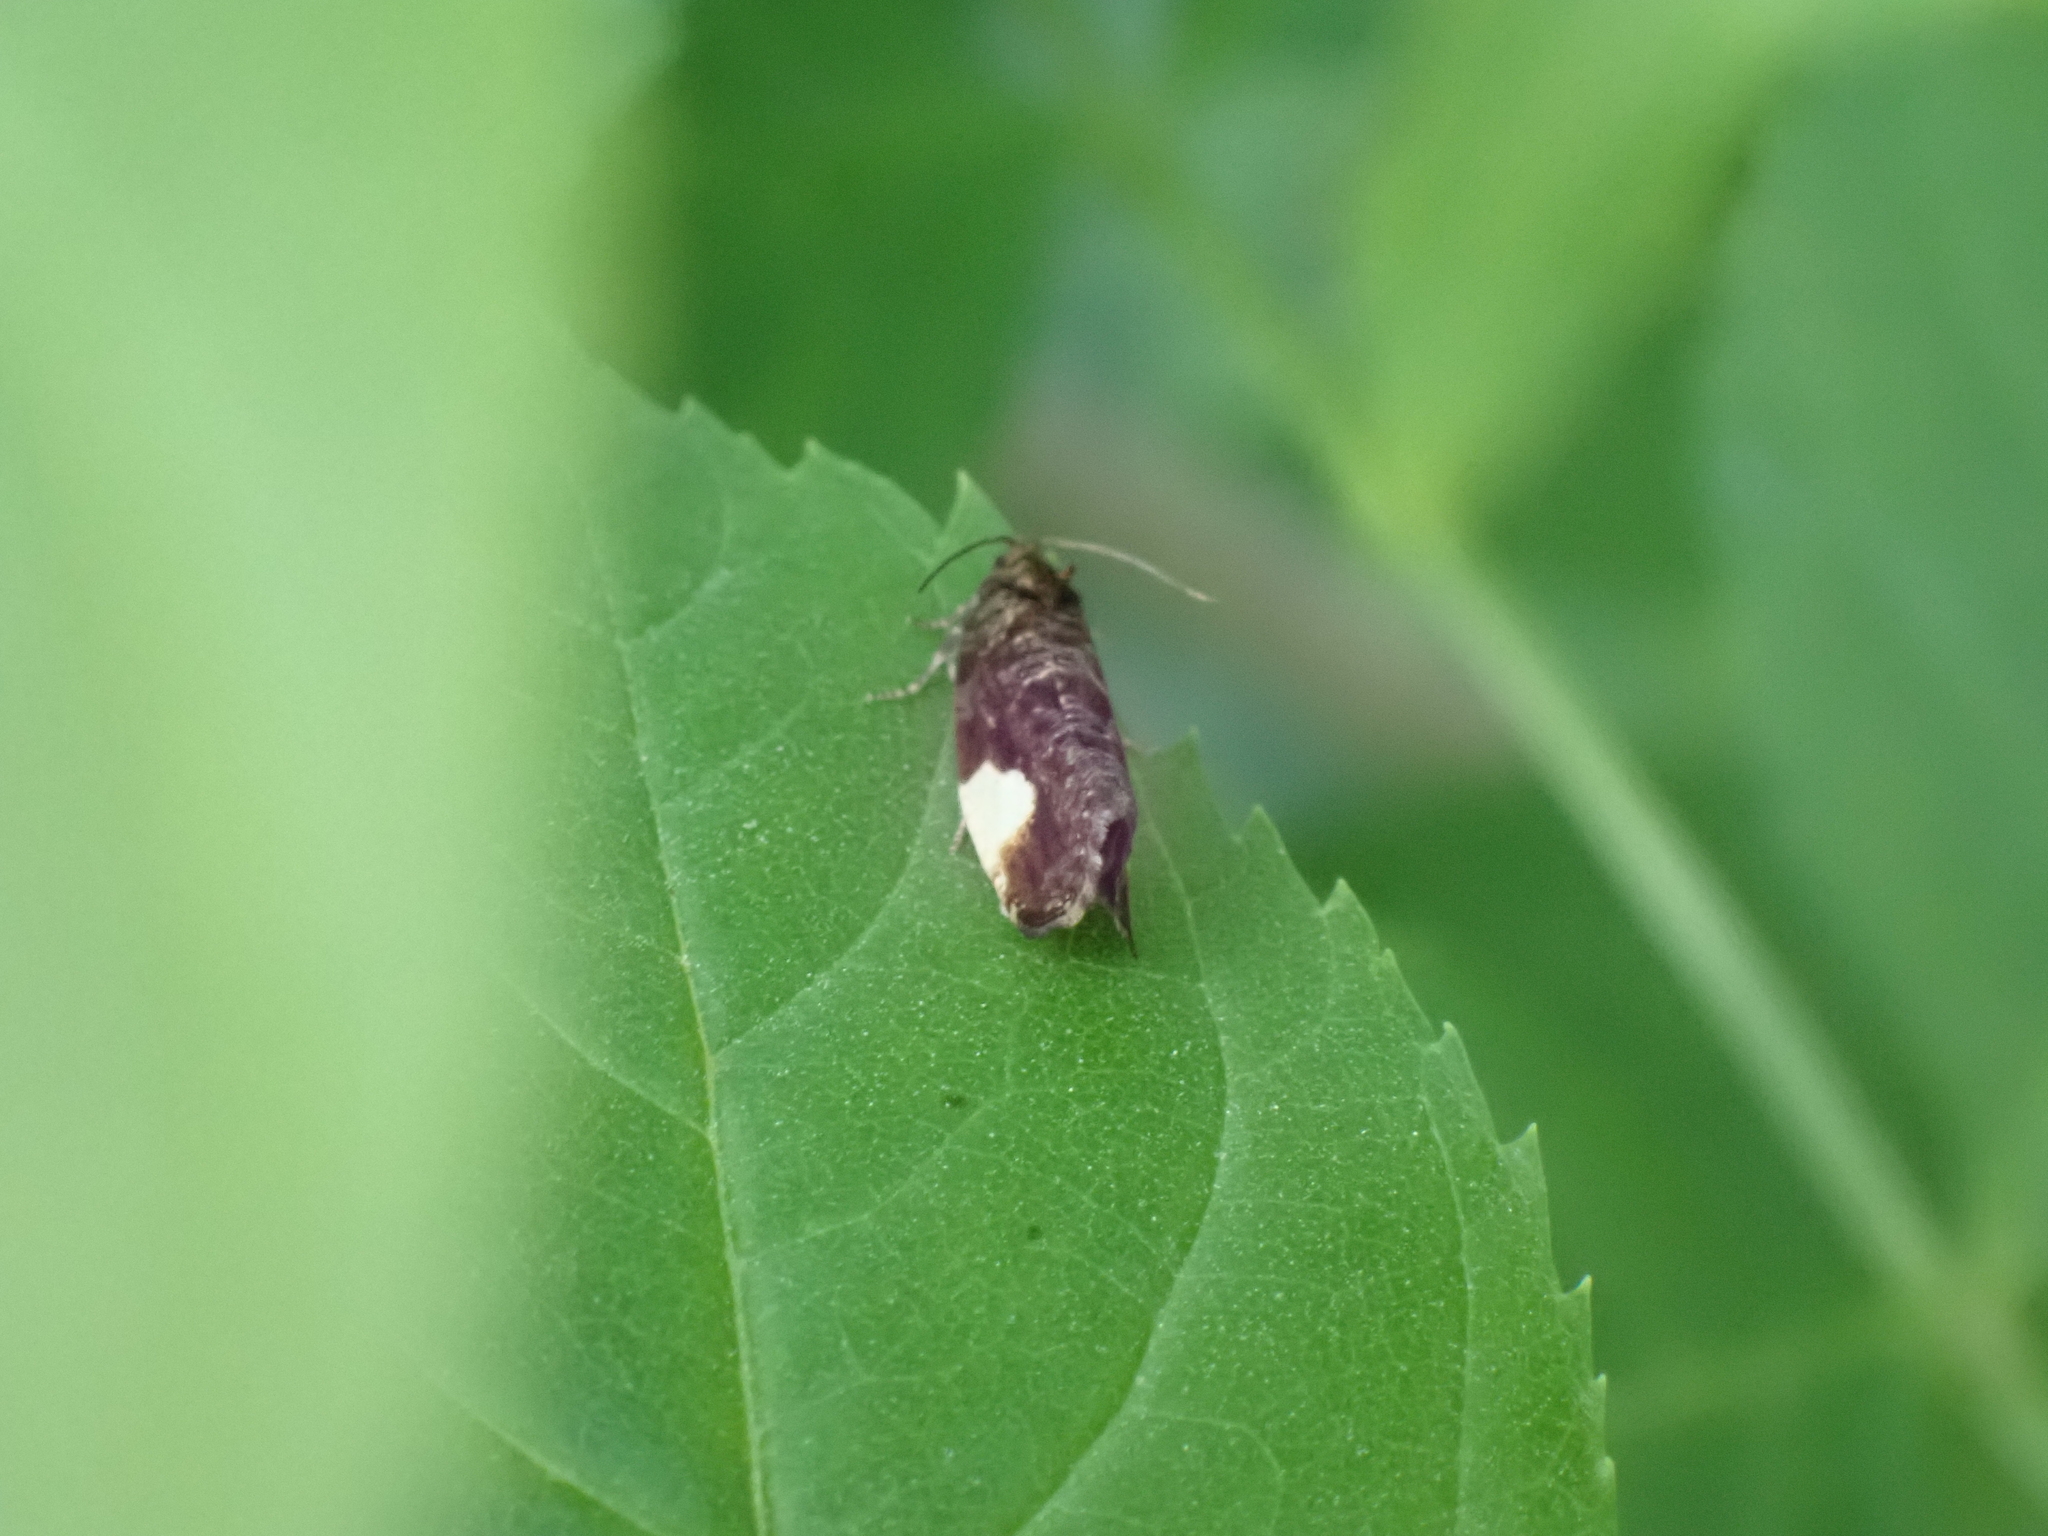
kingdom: Animalia
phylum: Arthropoda
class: Insecta
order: Lepidoptera
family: Tortricidae
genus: Hedya
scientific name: Hedya dimidiana
